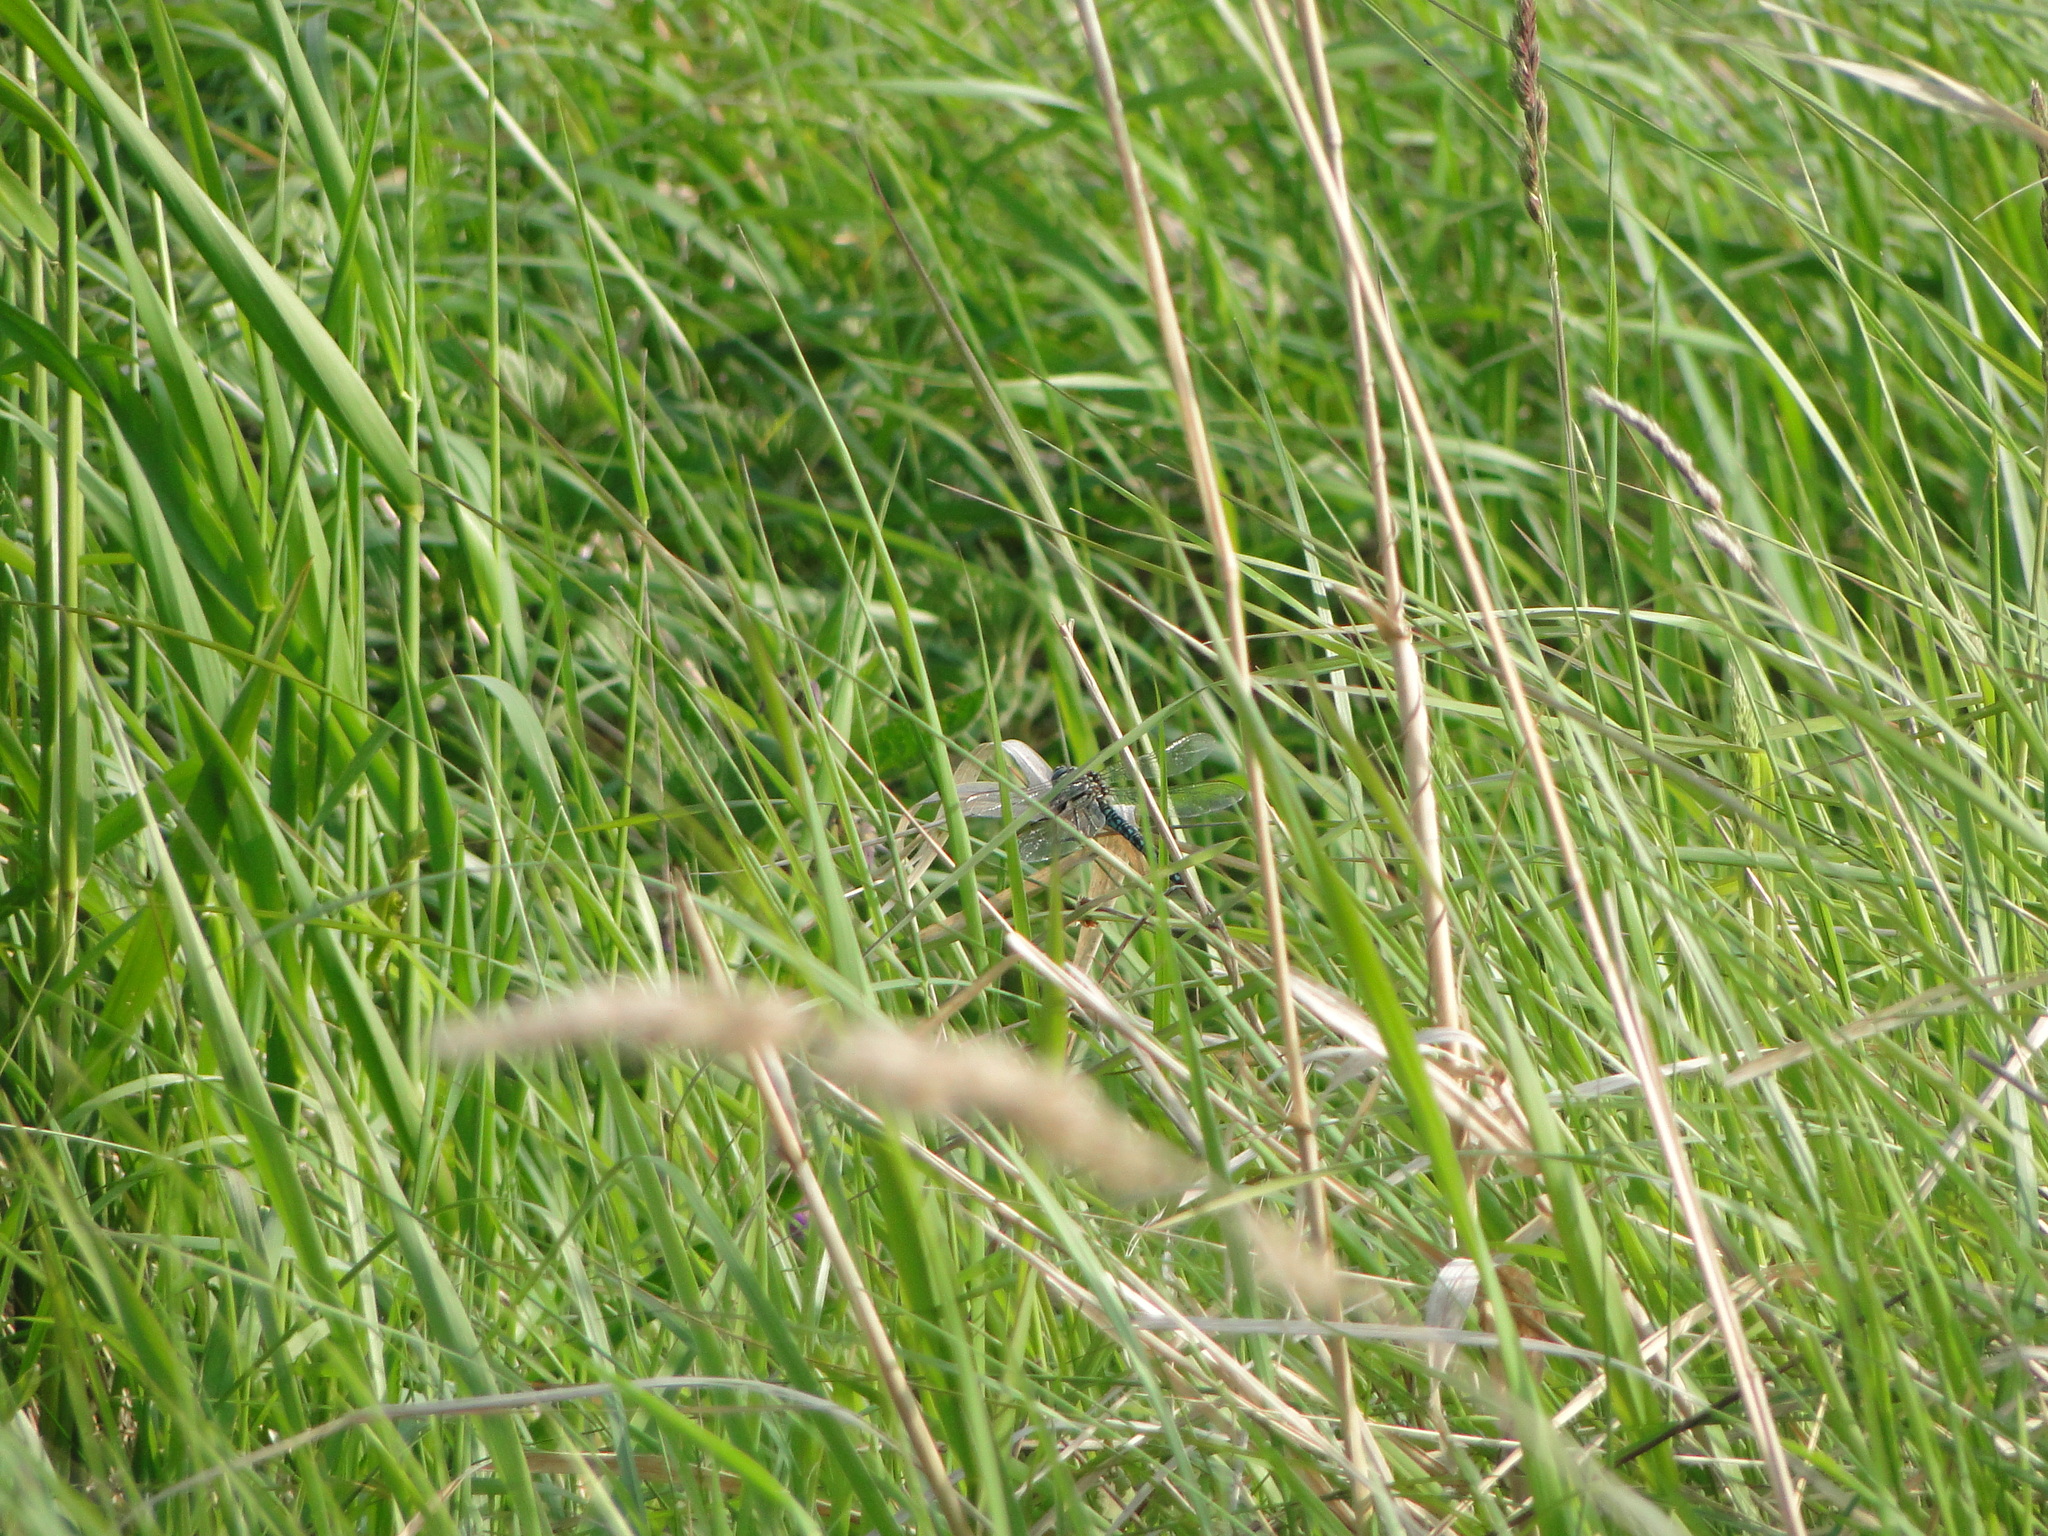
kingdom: Animalia
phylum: Arthropoda
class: Insecta
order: Odonata
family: Aeshnidae
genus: Brachytron
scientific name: Brachytron pratense
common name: Hairy hawker
